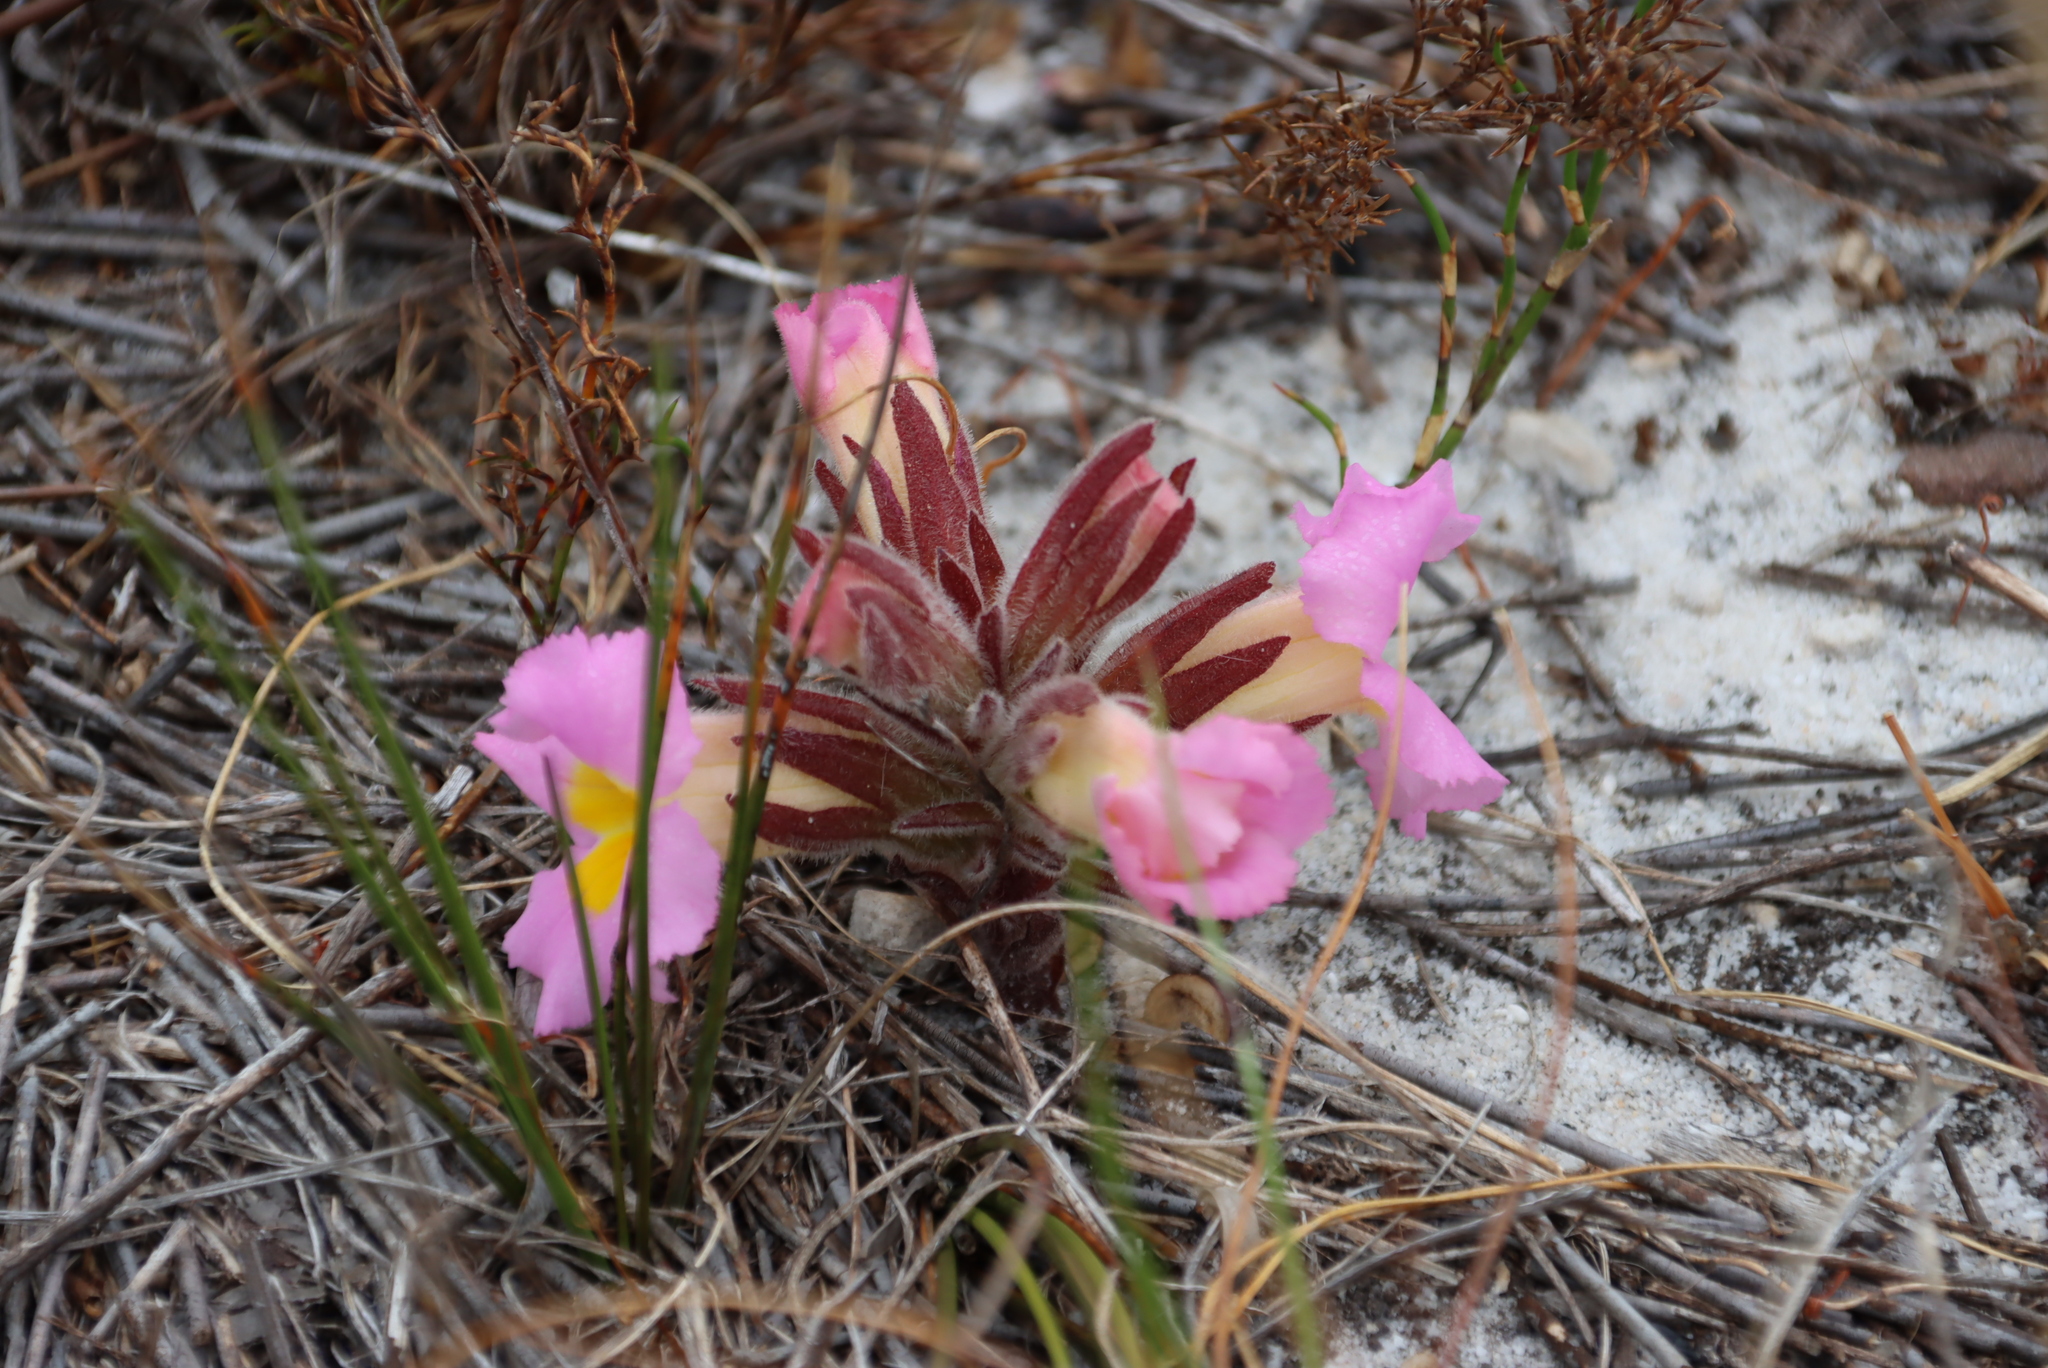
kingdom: Plantae
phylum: Tracheophyta
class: Magnoliopsida
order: Lamiales
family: Orobanchaceae
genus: Harveya
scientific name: Harveya purpurea
